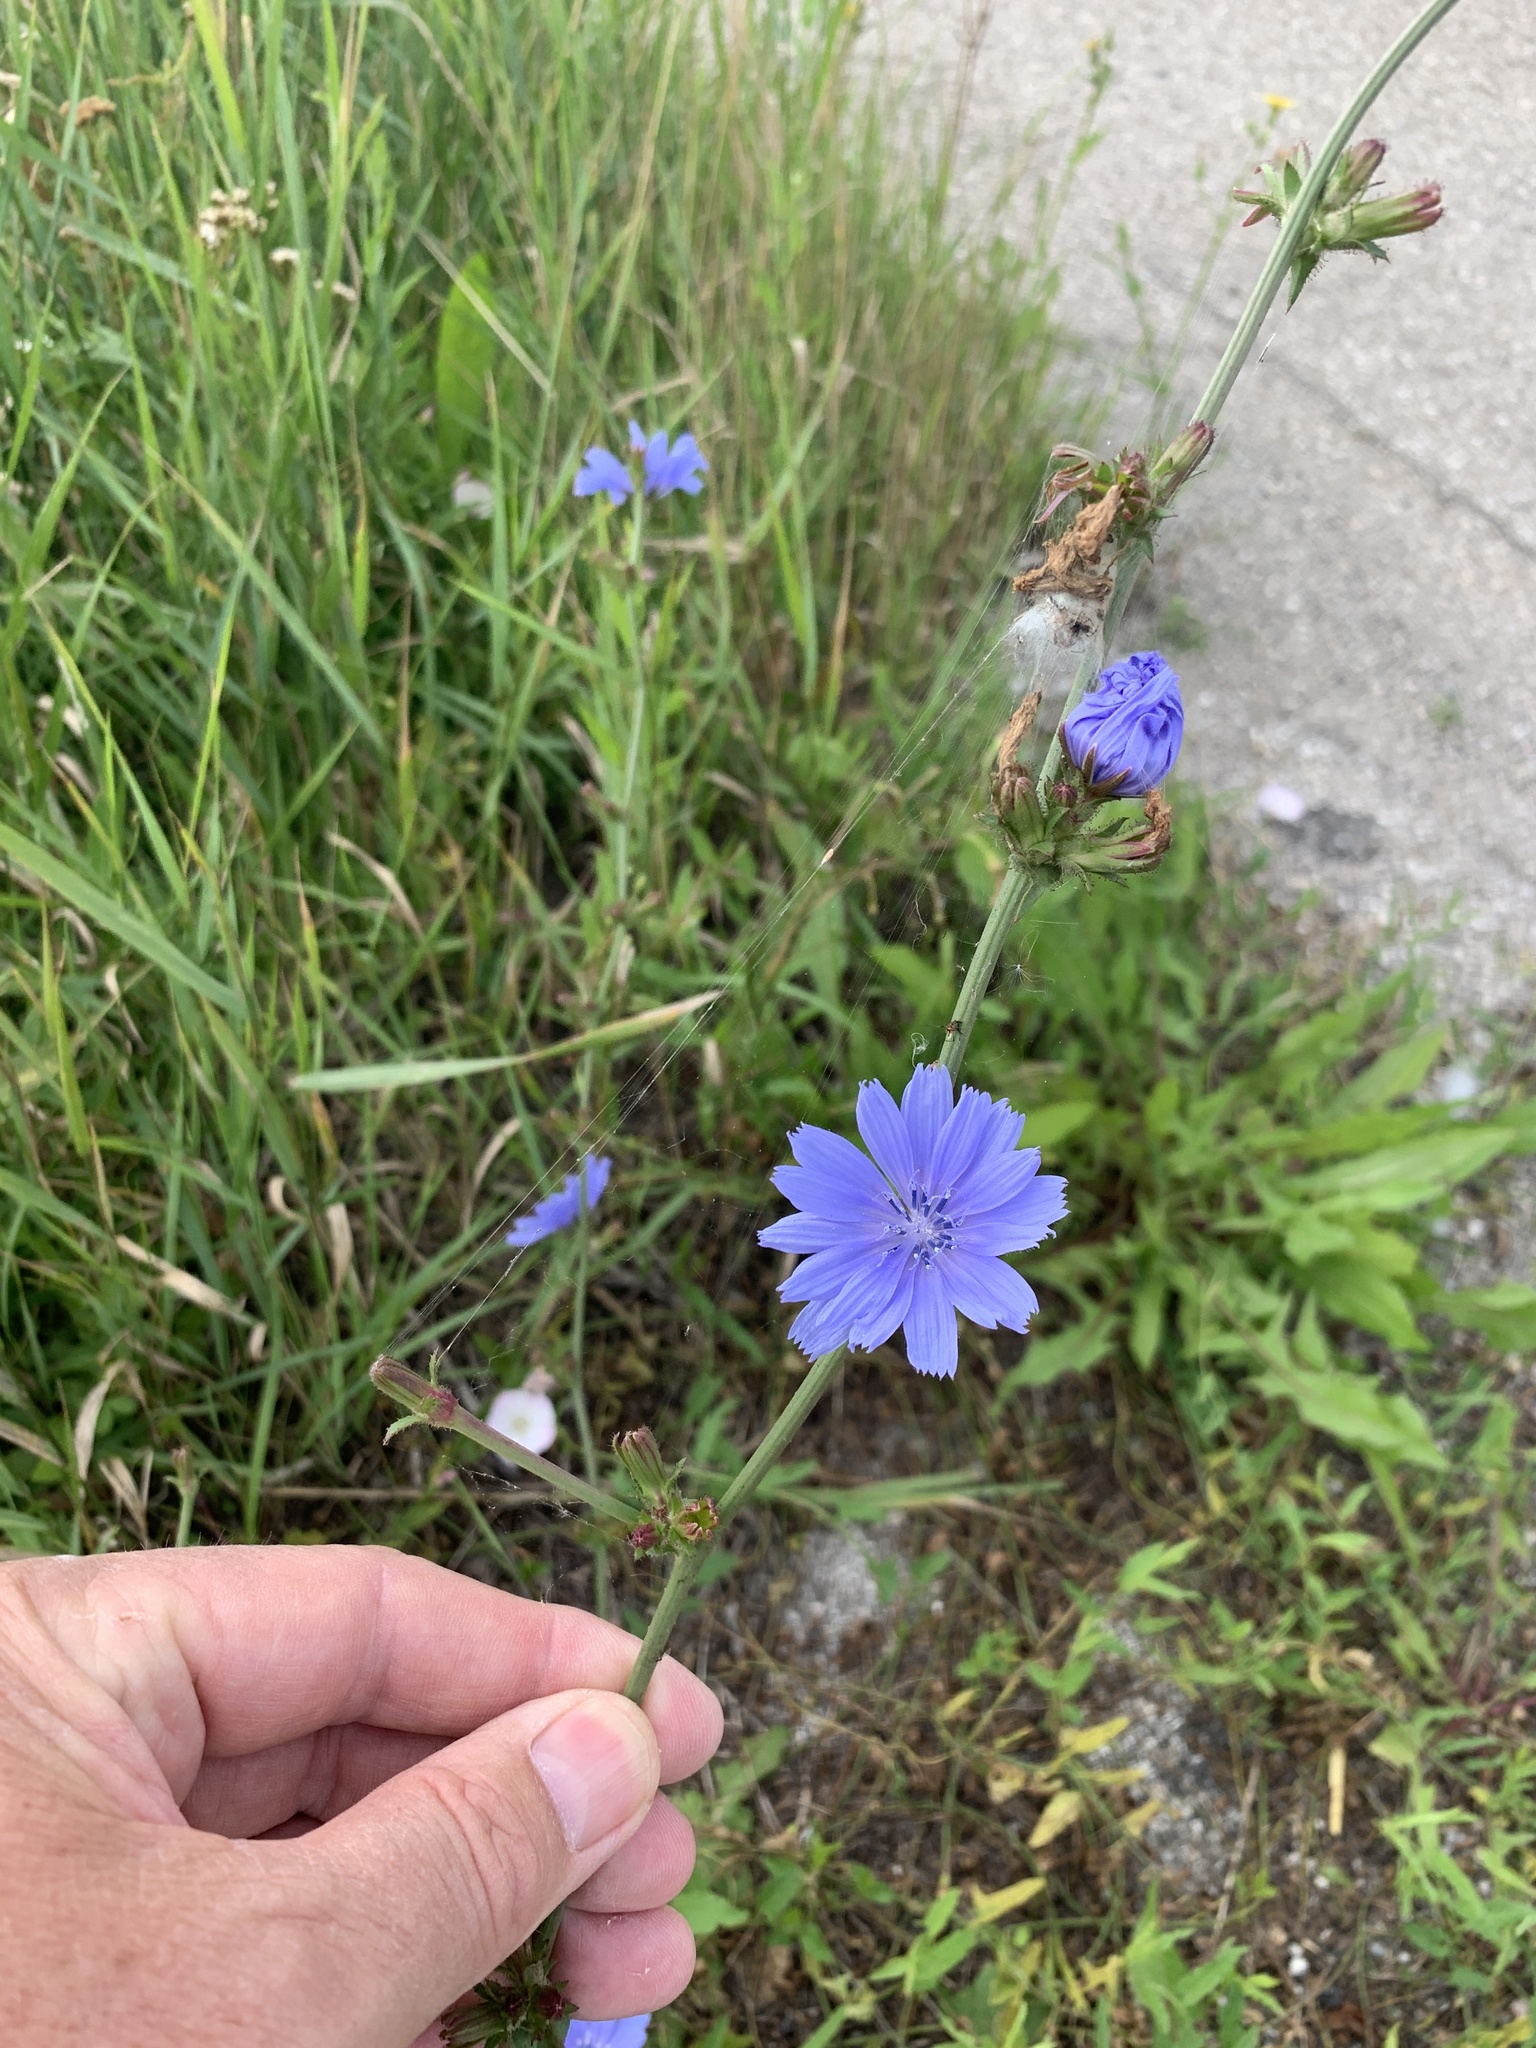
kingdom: Plantae
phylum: Tracheophyta
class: Magnoliopsida
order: Asterales
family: Asteraceae
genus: Cichorium
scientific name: Cichorium intybus
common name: Chicory
